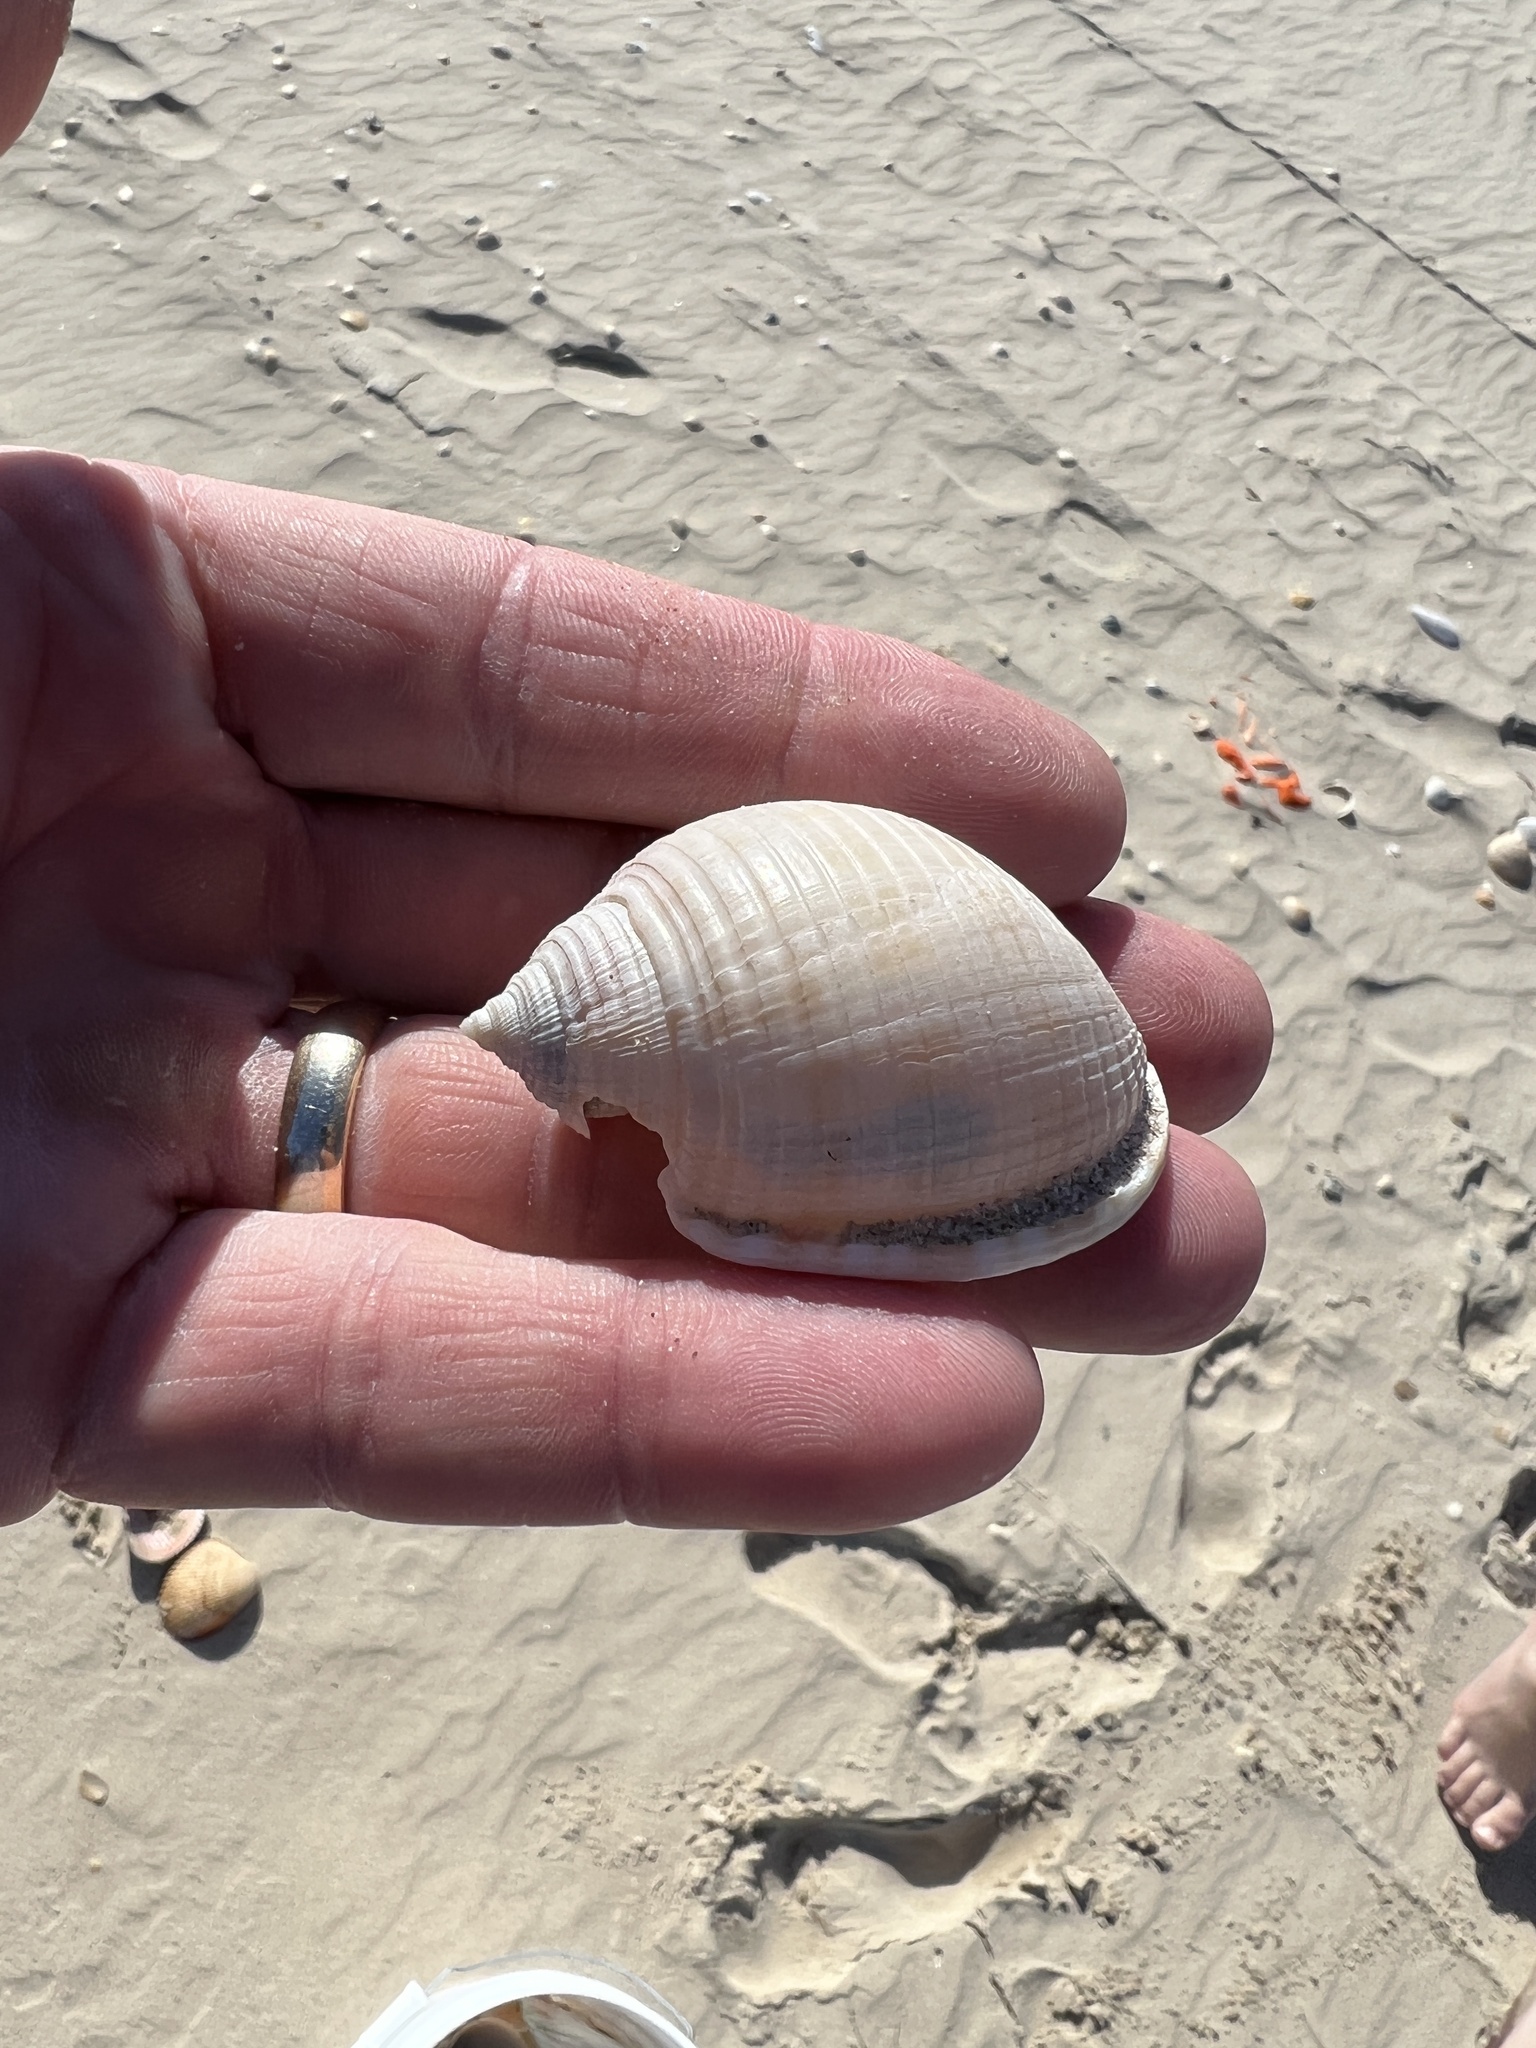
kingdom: Animalia
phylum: Mollusca
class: Gastropoda
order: Littorinimorpha
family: Cassidae
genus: Semicassis
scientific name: Semicassis granulata
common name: Scotch bonnet
